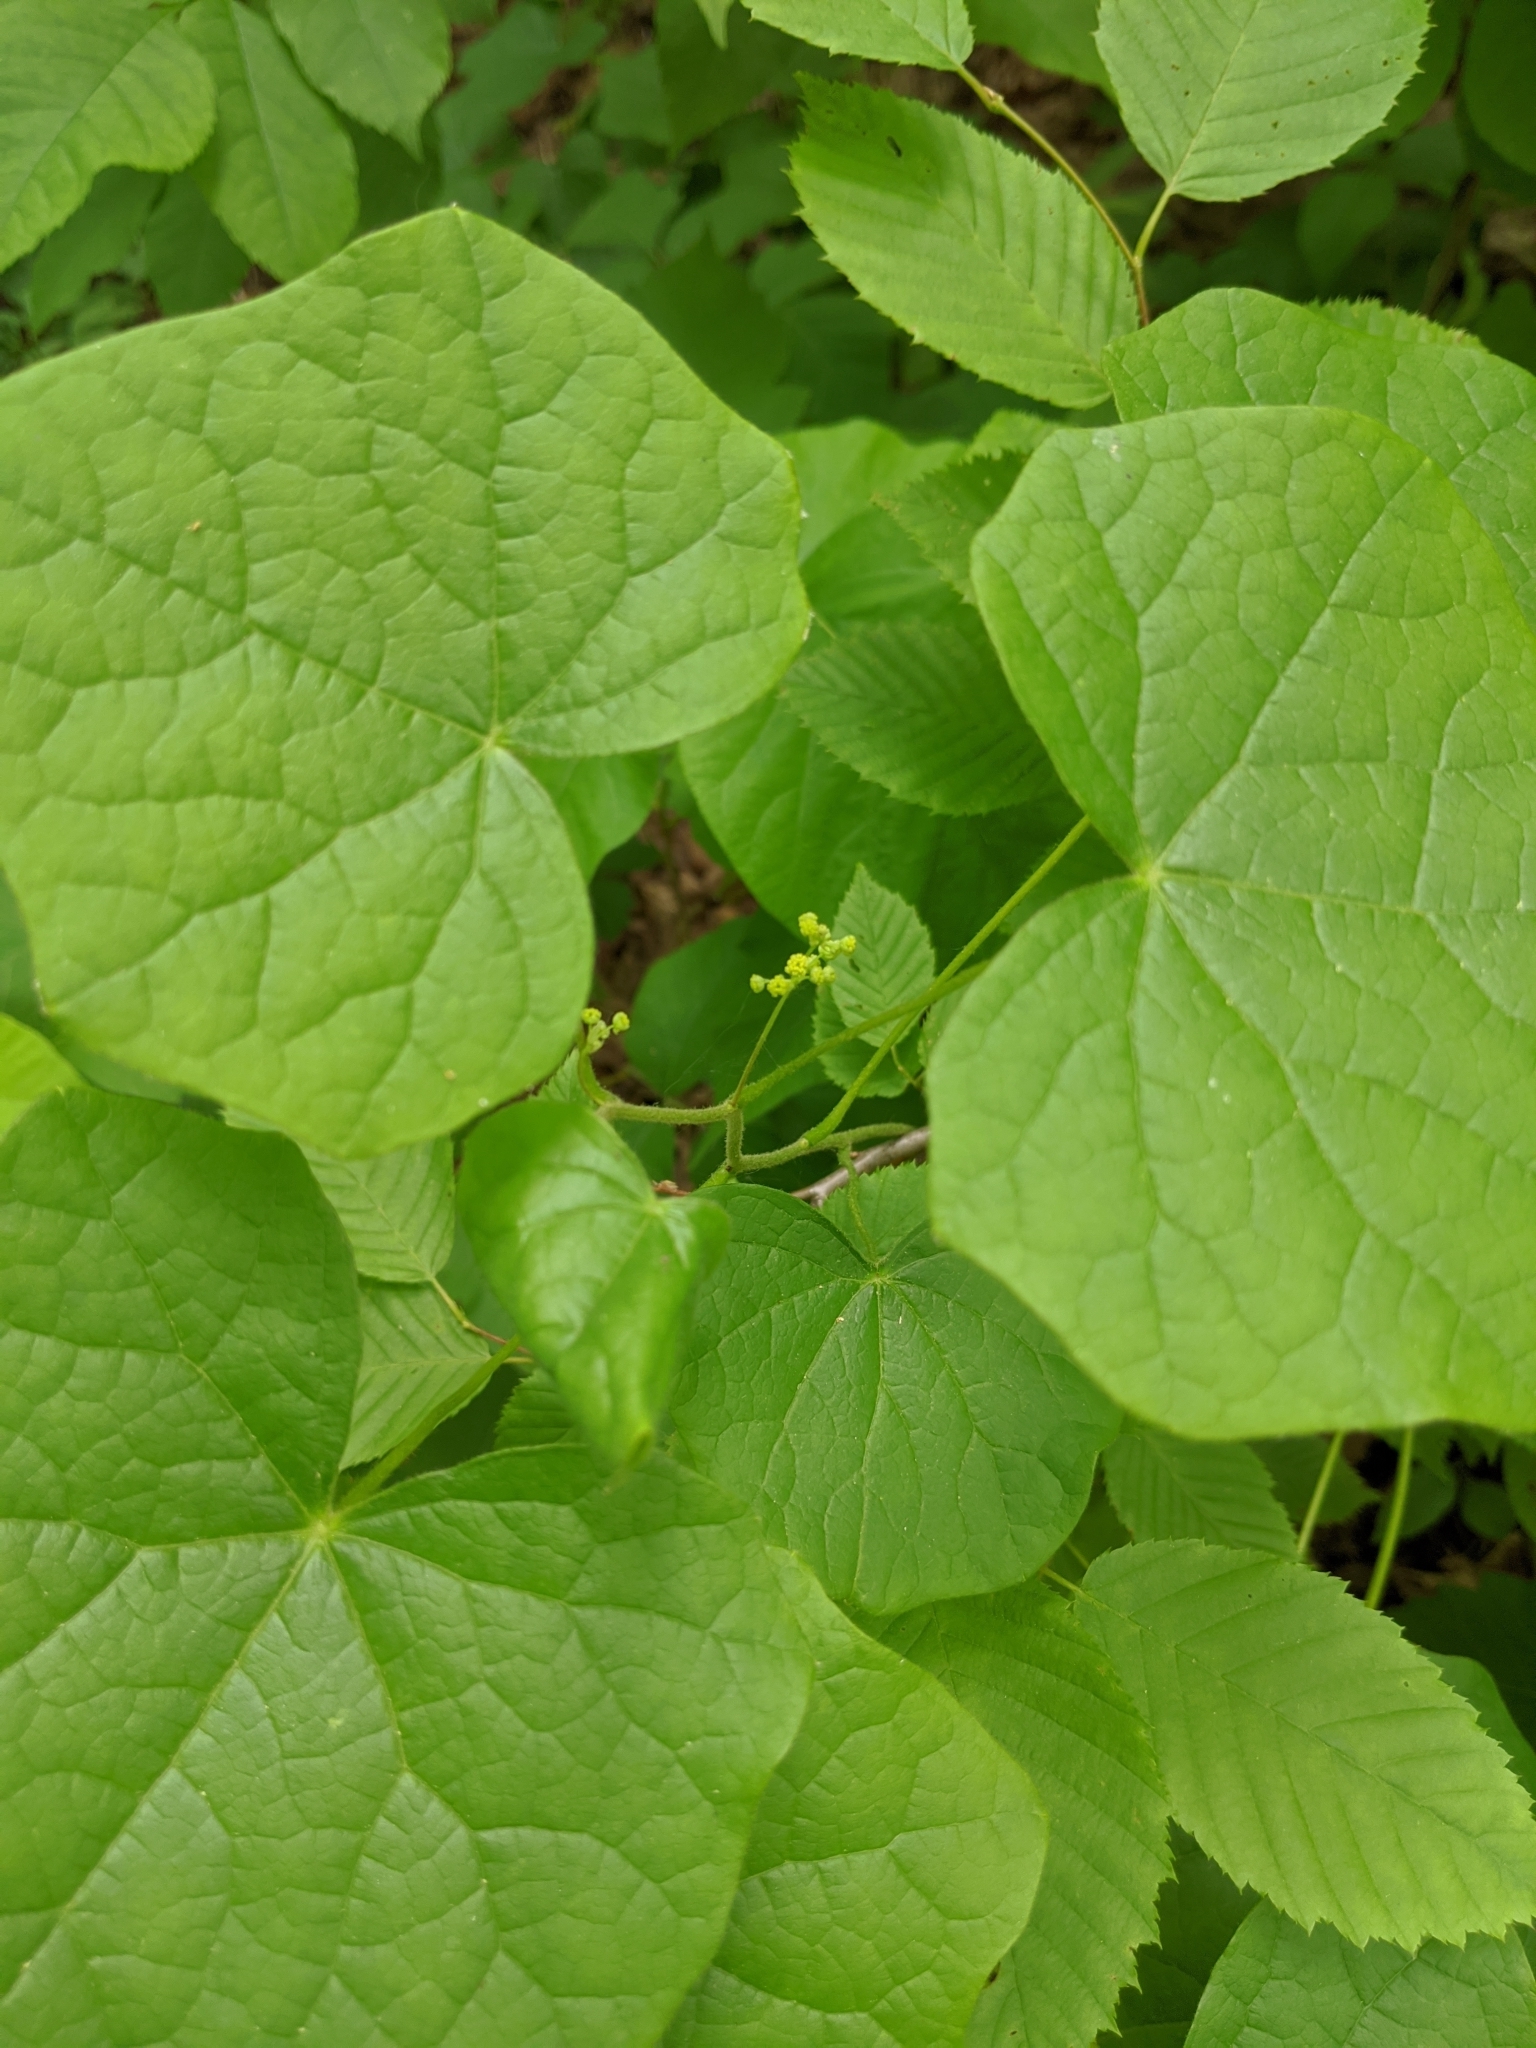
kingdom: Plantae
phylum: Tracheophyta
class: Magnoliopsida
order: Ranunculales
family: Menispermaceae
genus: Menispermum
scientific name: Menispermum canadense
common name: Moonseed
